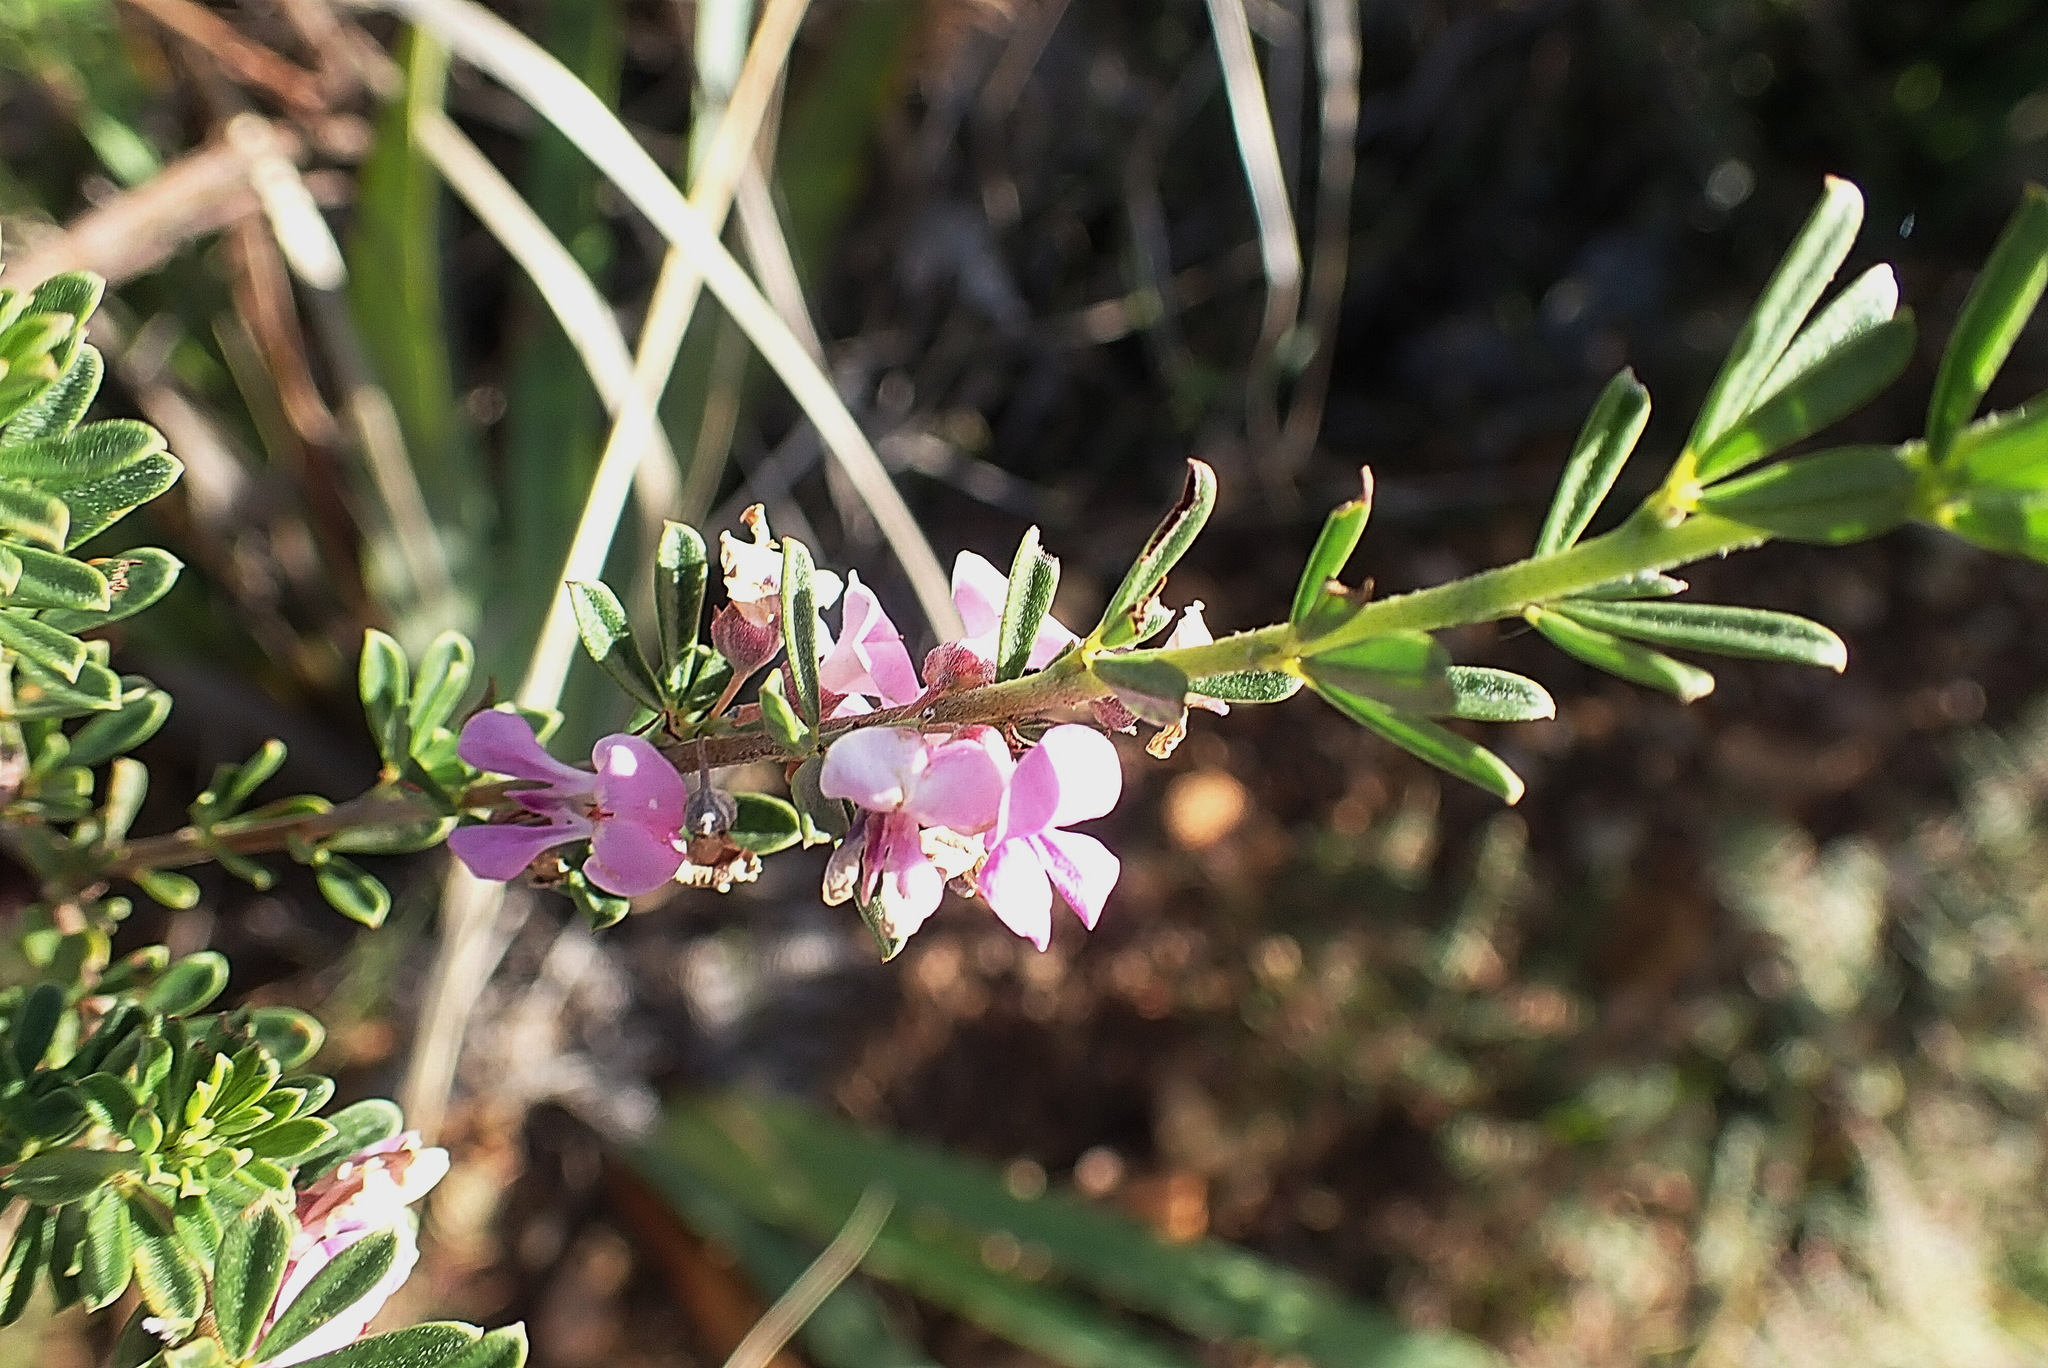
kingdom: Plantae
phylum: Tracheophyta
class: Magnoliopsida
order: Fabales
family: Fabaceae
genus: Indigofera
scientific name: Indigofera flabellata
